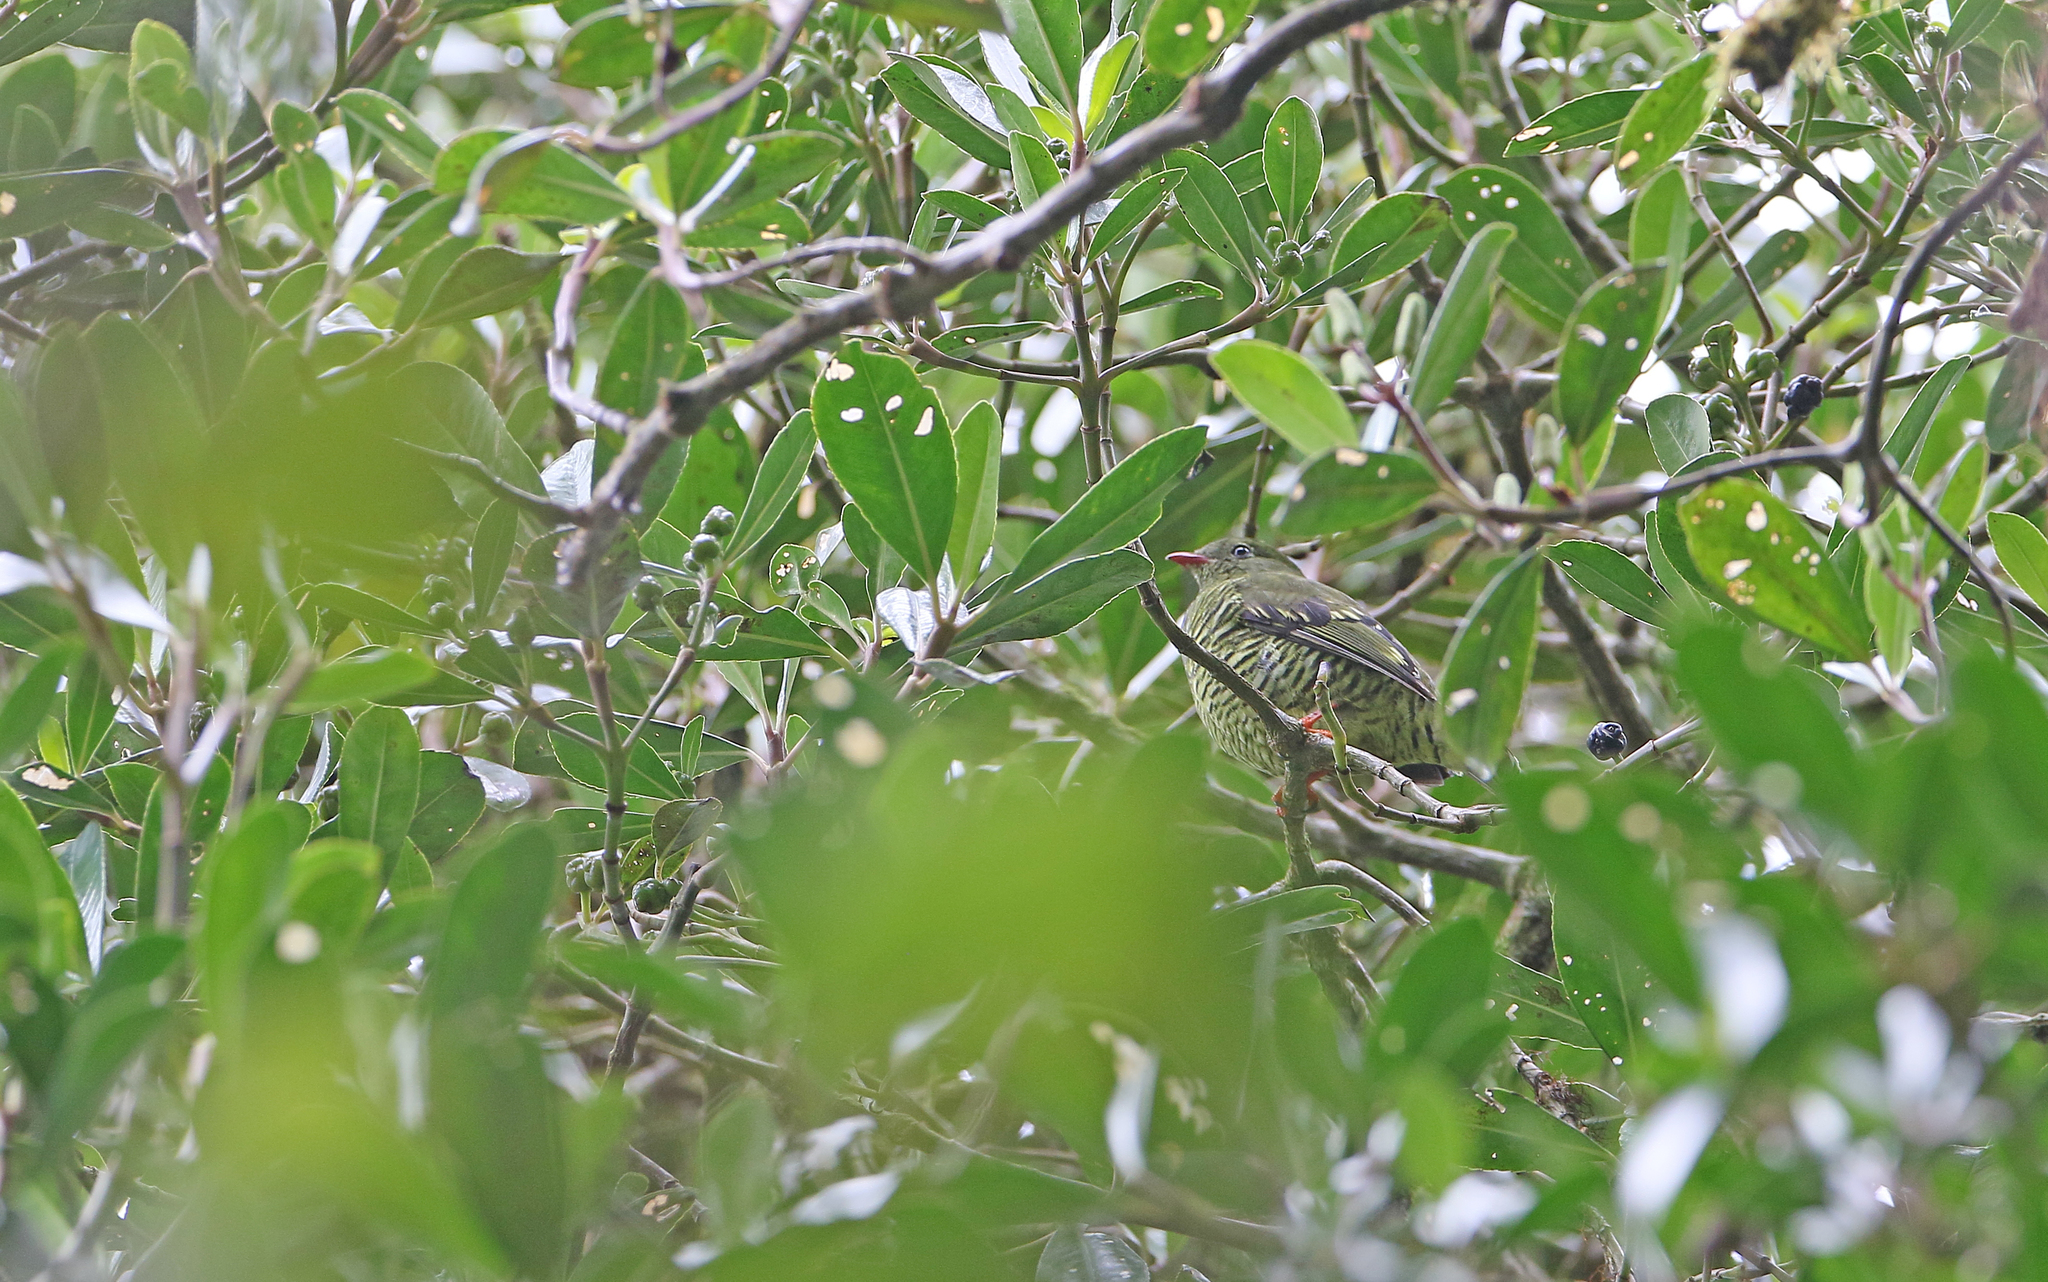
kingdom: Animalia
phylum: Chordata
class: Aves
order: Passeriformes
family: Cotingidae
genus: Pipreola
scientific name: Pipreola arcuata
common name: Barred fruiteater
